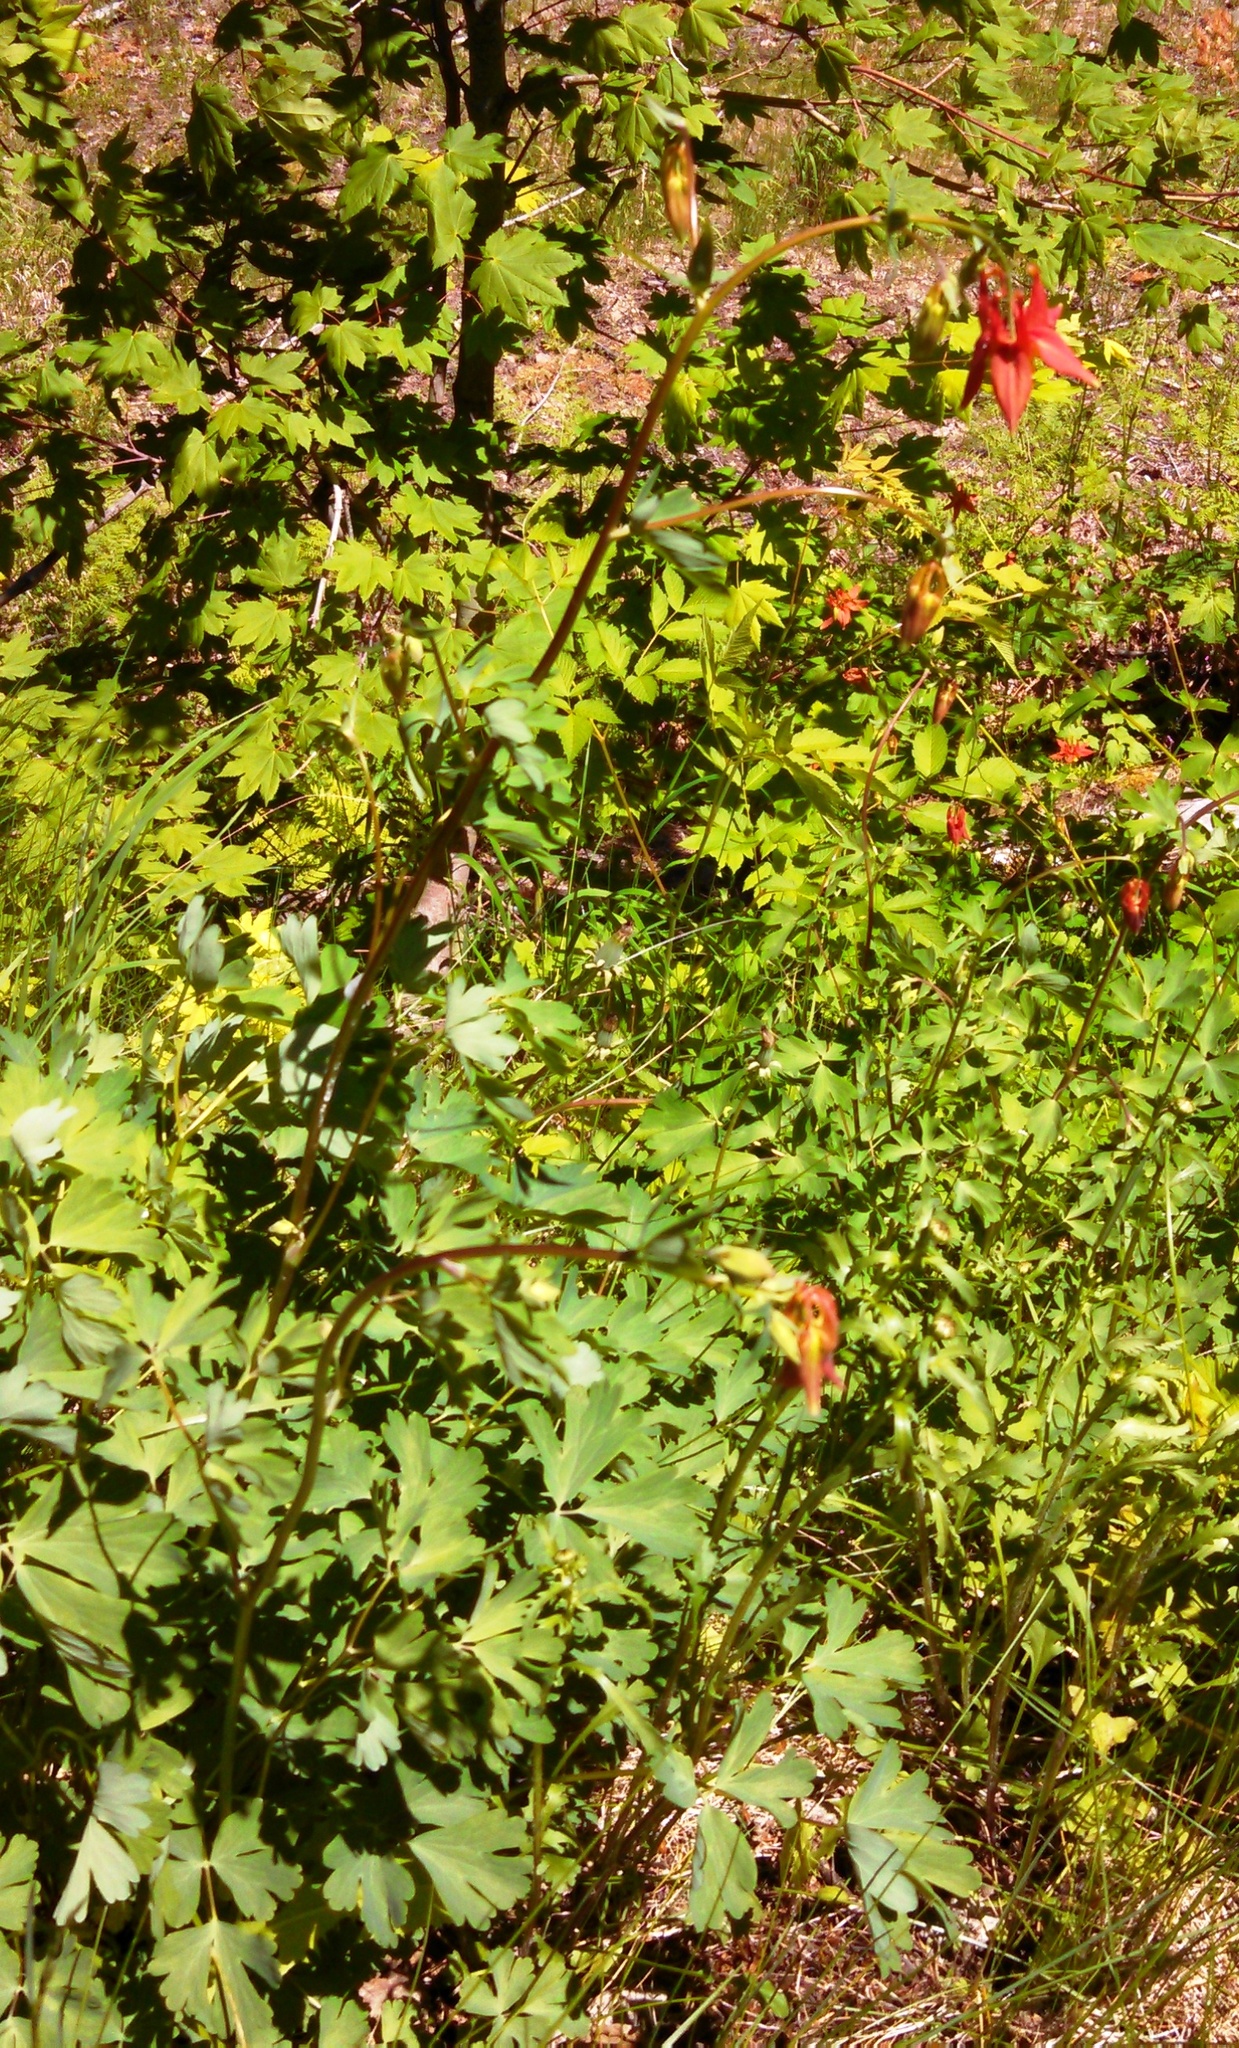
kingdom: Plantae
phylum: Tracheophyta
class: Magnoliopsida
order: Ranunculales
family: Ranunculaceae
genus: Aquilegia
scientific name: Aquilegia formosa
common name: Sitka columbine
